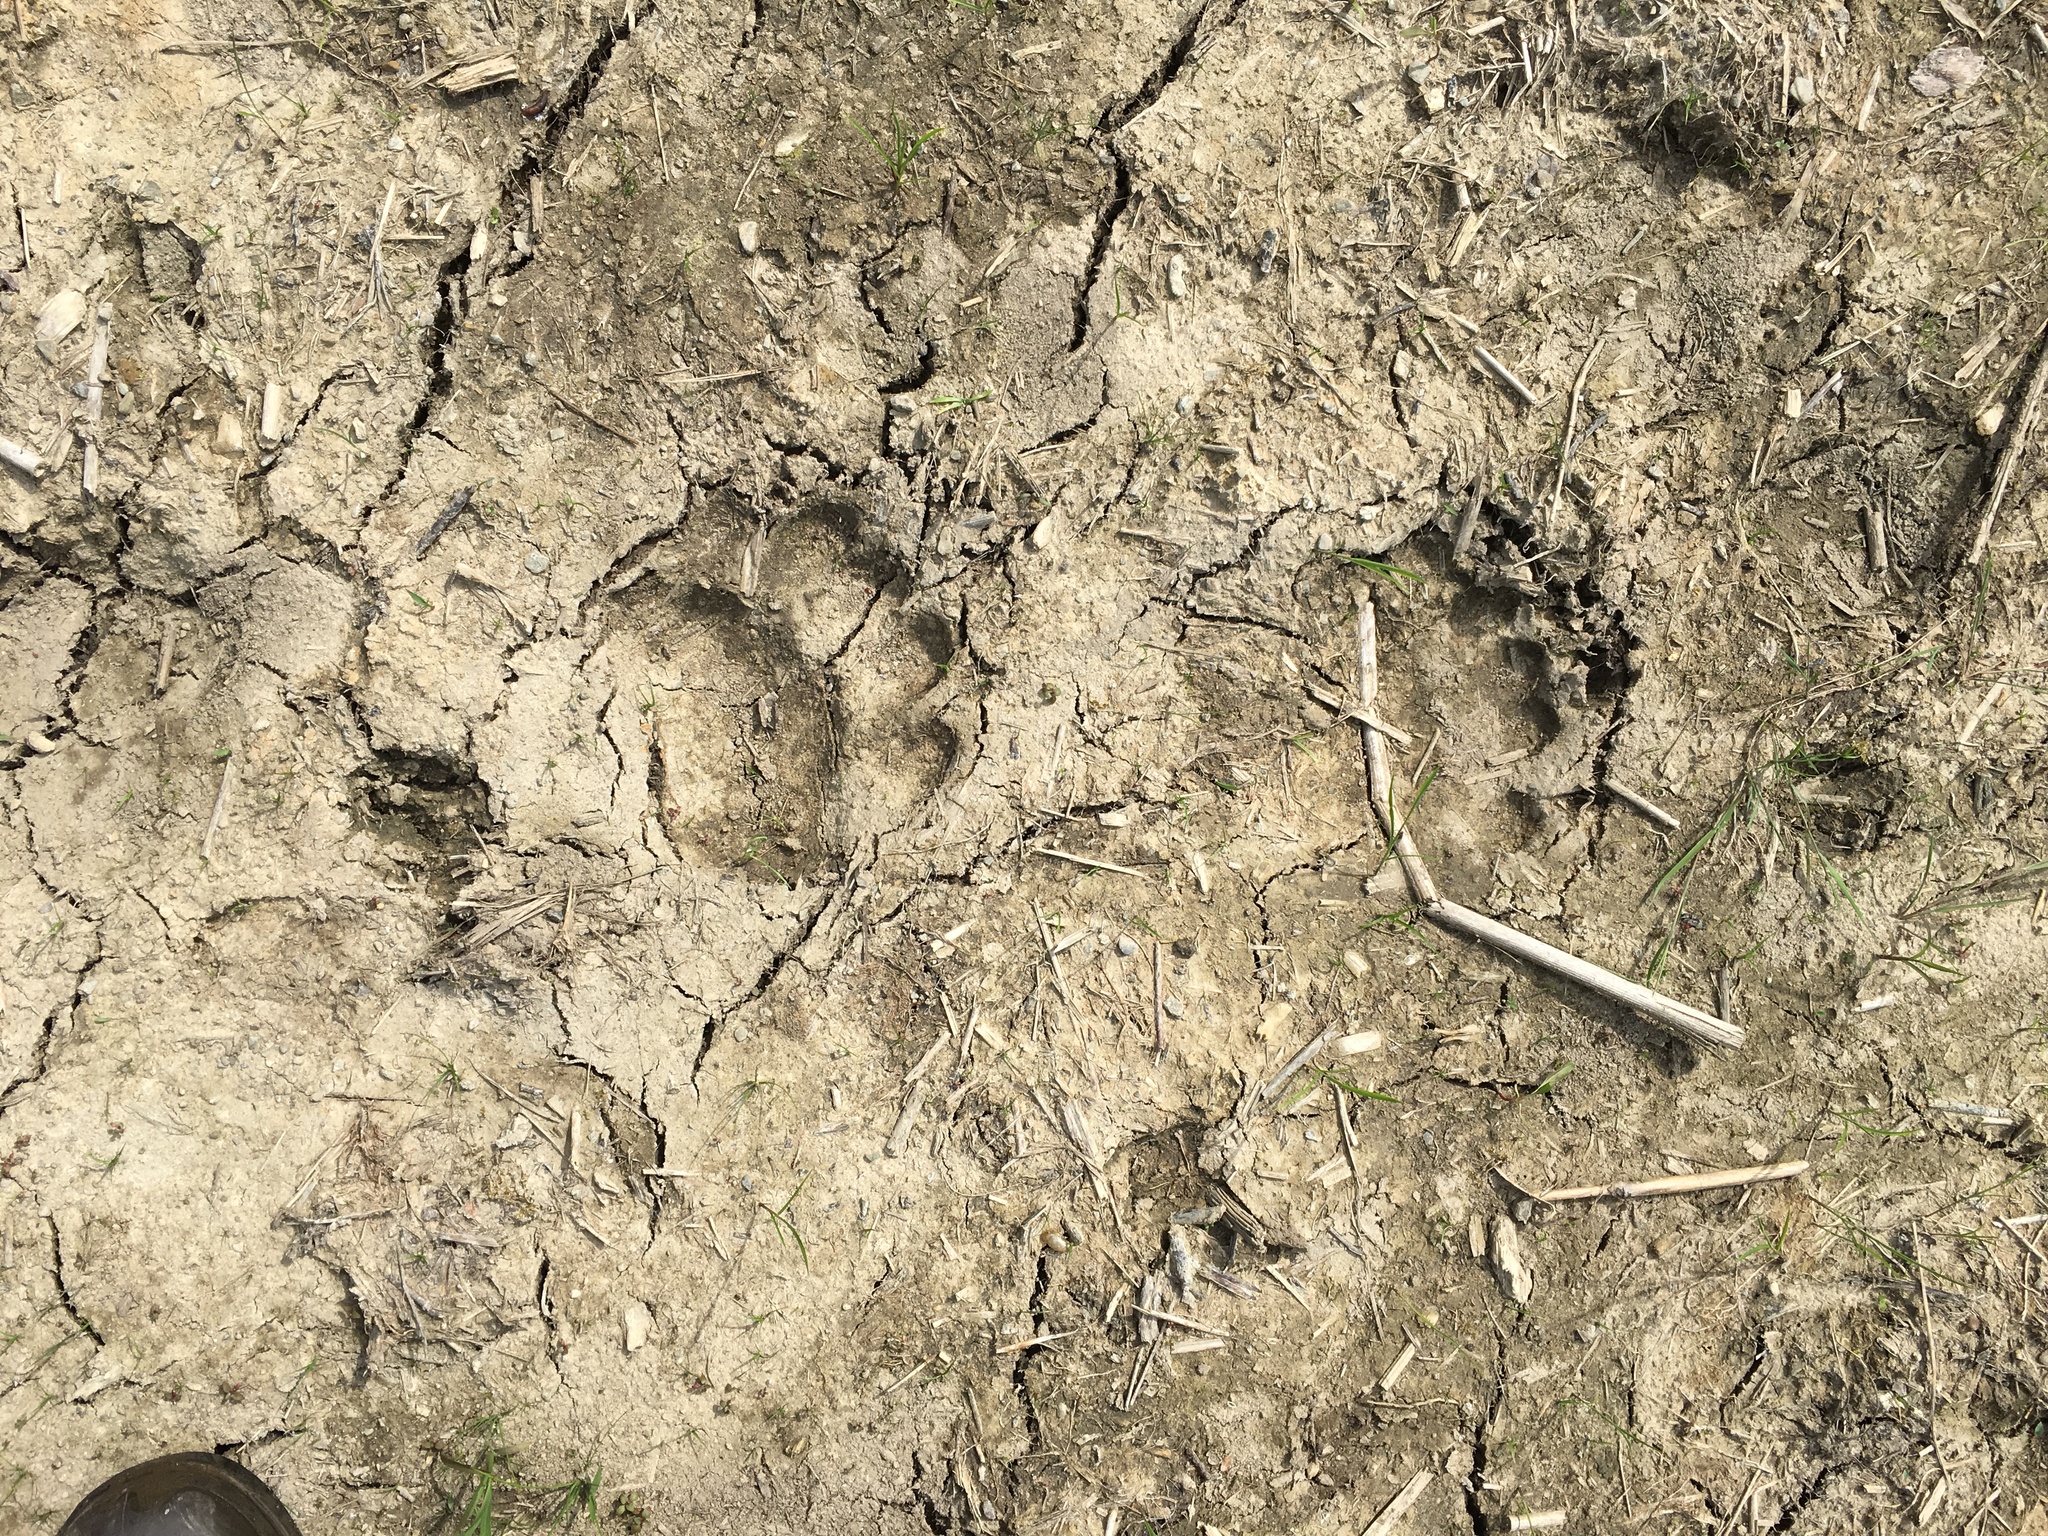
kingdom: Animalia
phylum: Chordata
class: Mammalia
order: Carnivora
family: Ursidae
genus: Ursus
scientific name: Ursus americanus
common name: American black bear
